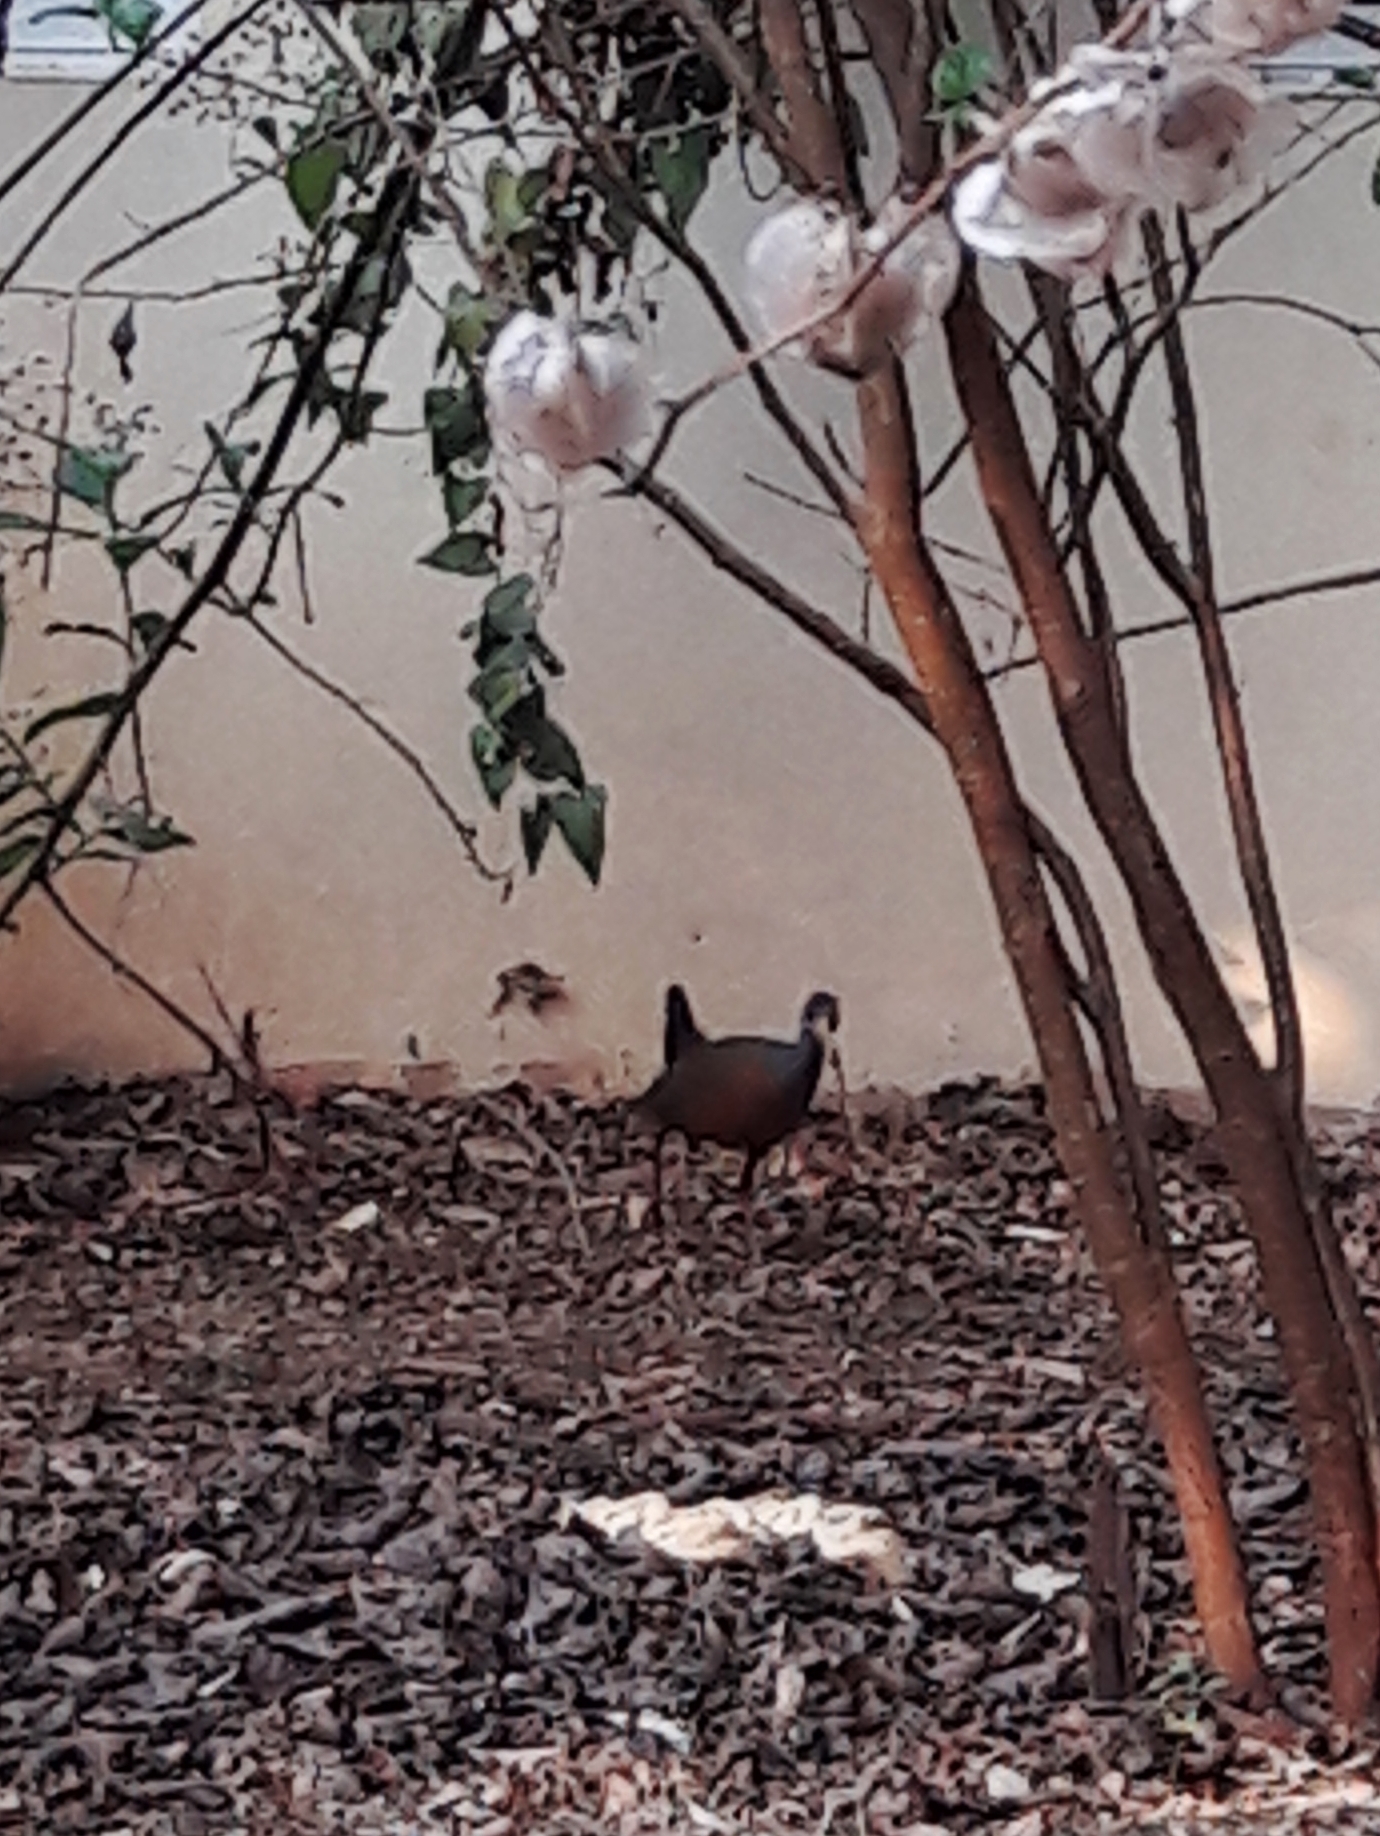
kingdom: Animalia
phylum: Chordata
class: Aves
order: Gruiformes
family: Rallidae
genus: Aramides
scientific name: Aramides cajanea
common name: Gray-necked wood-rail
